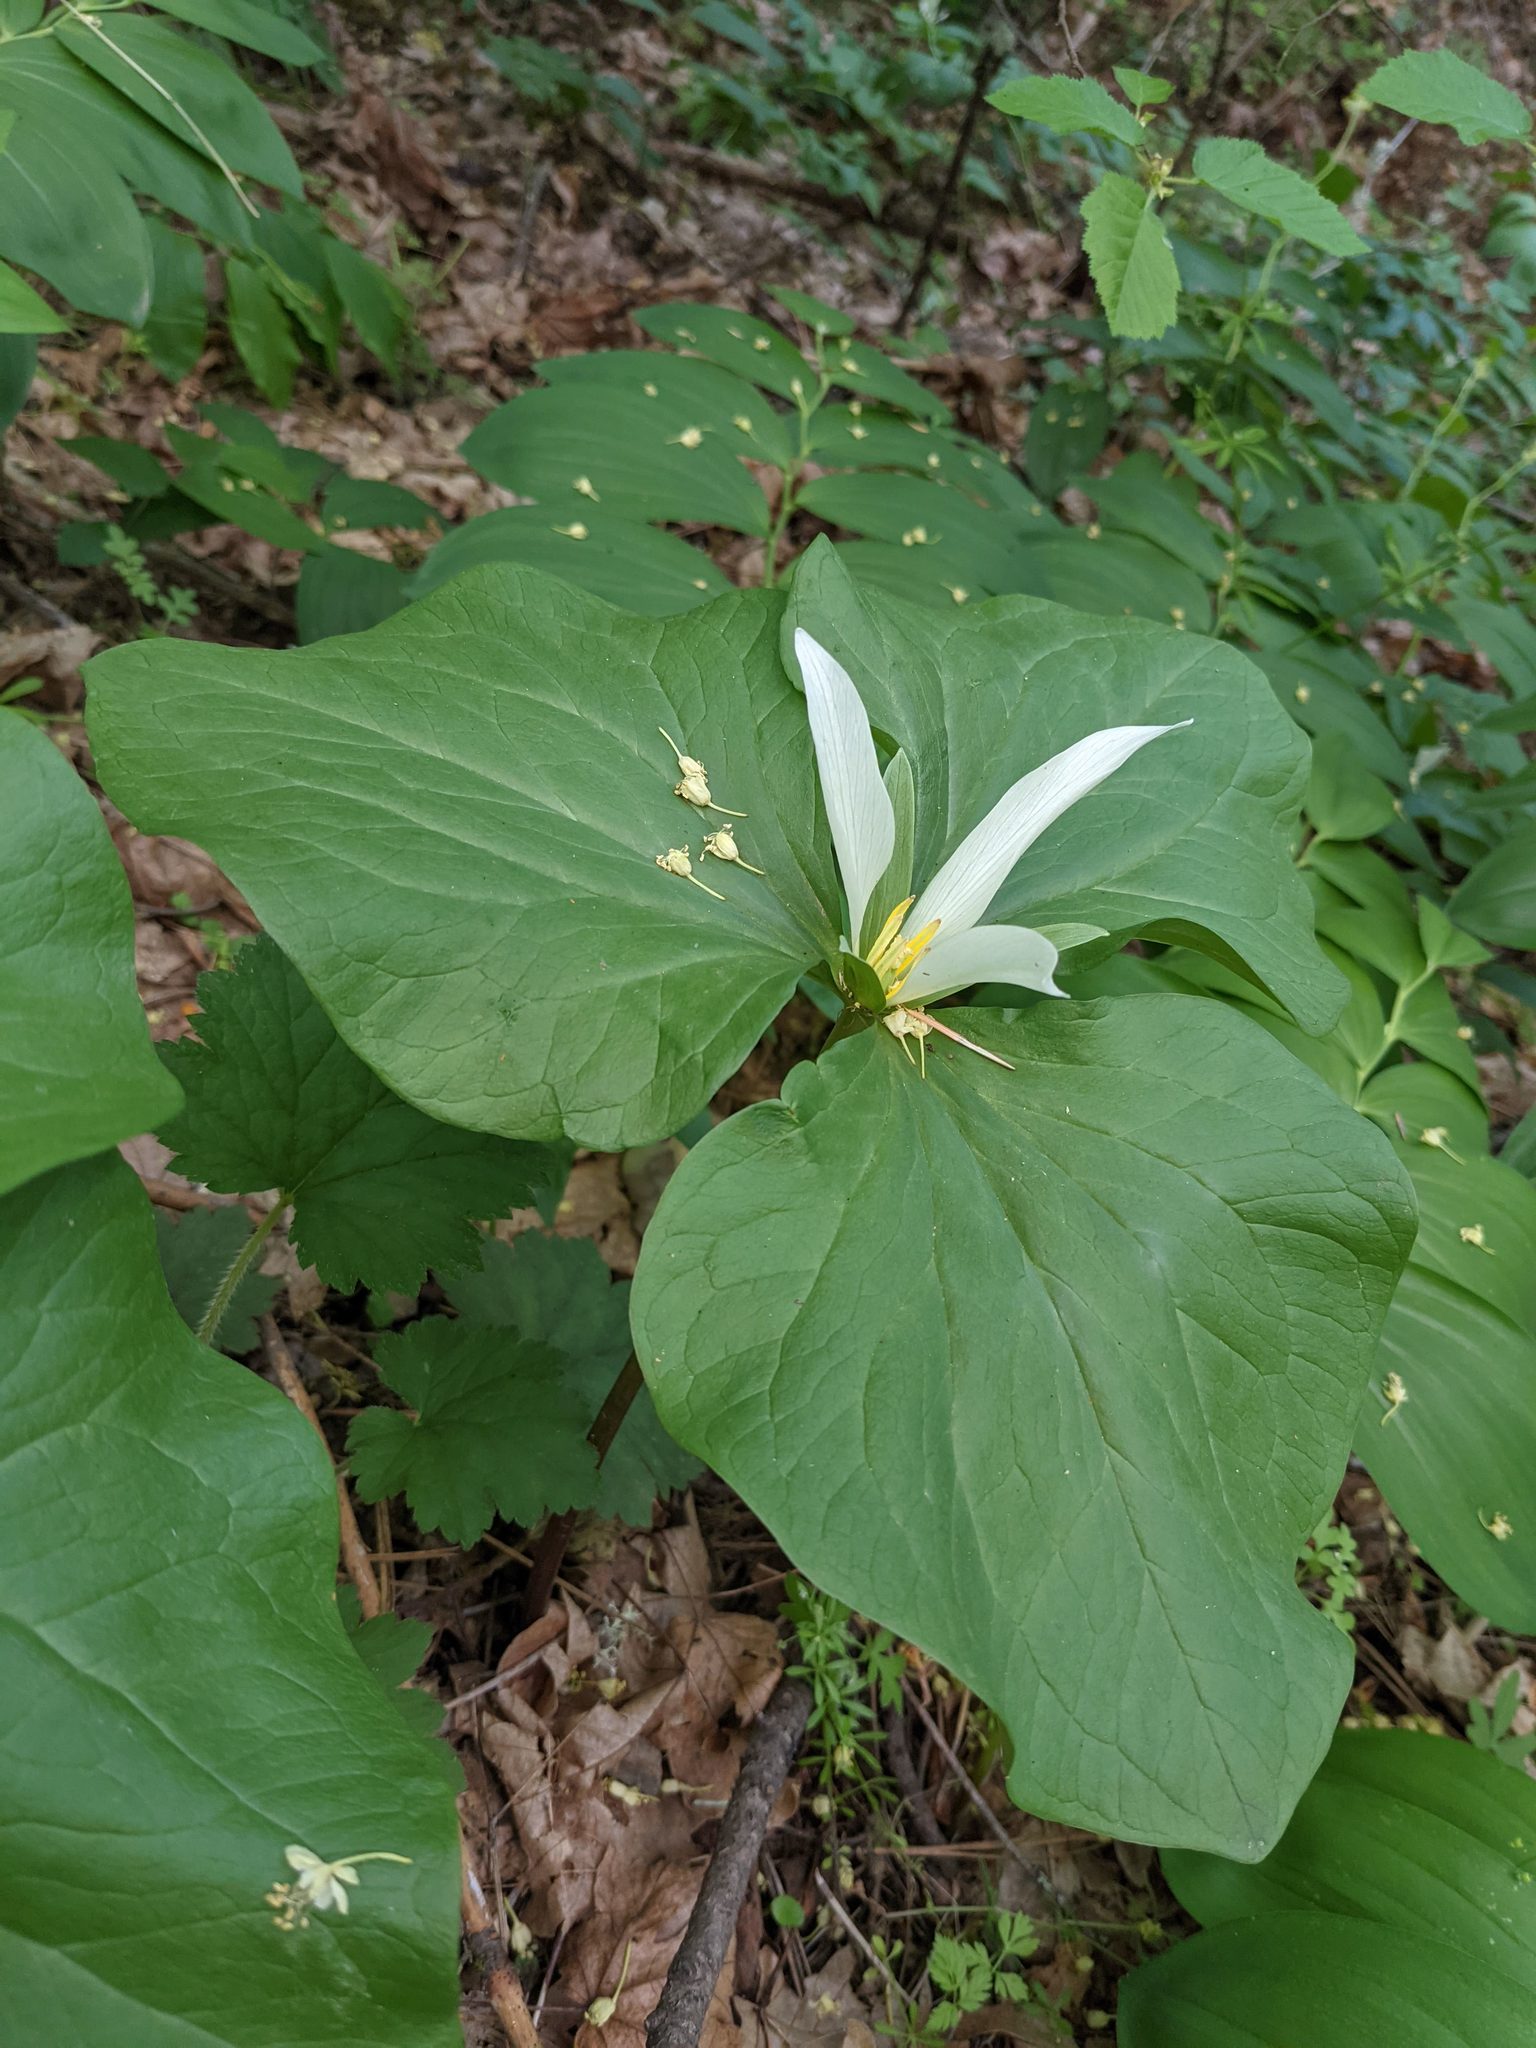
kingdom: Plantae
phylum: Tracheophyta
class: Liliopsida
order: Liliales
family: Melanthiaceae
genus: Trillium
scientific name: Trillium albidum
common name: Freeman's trillium
